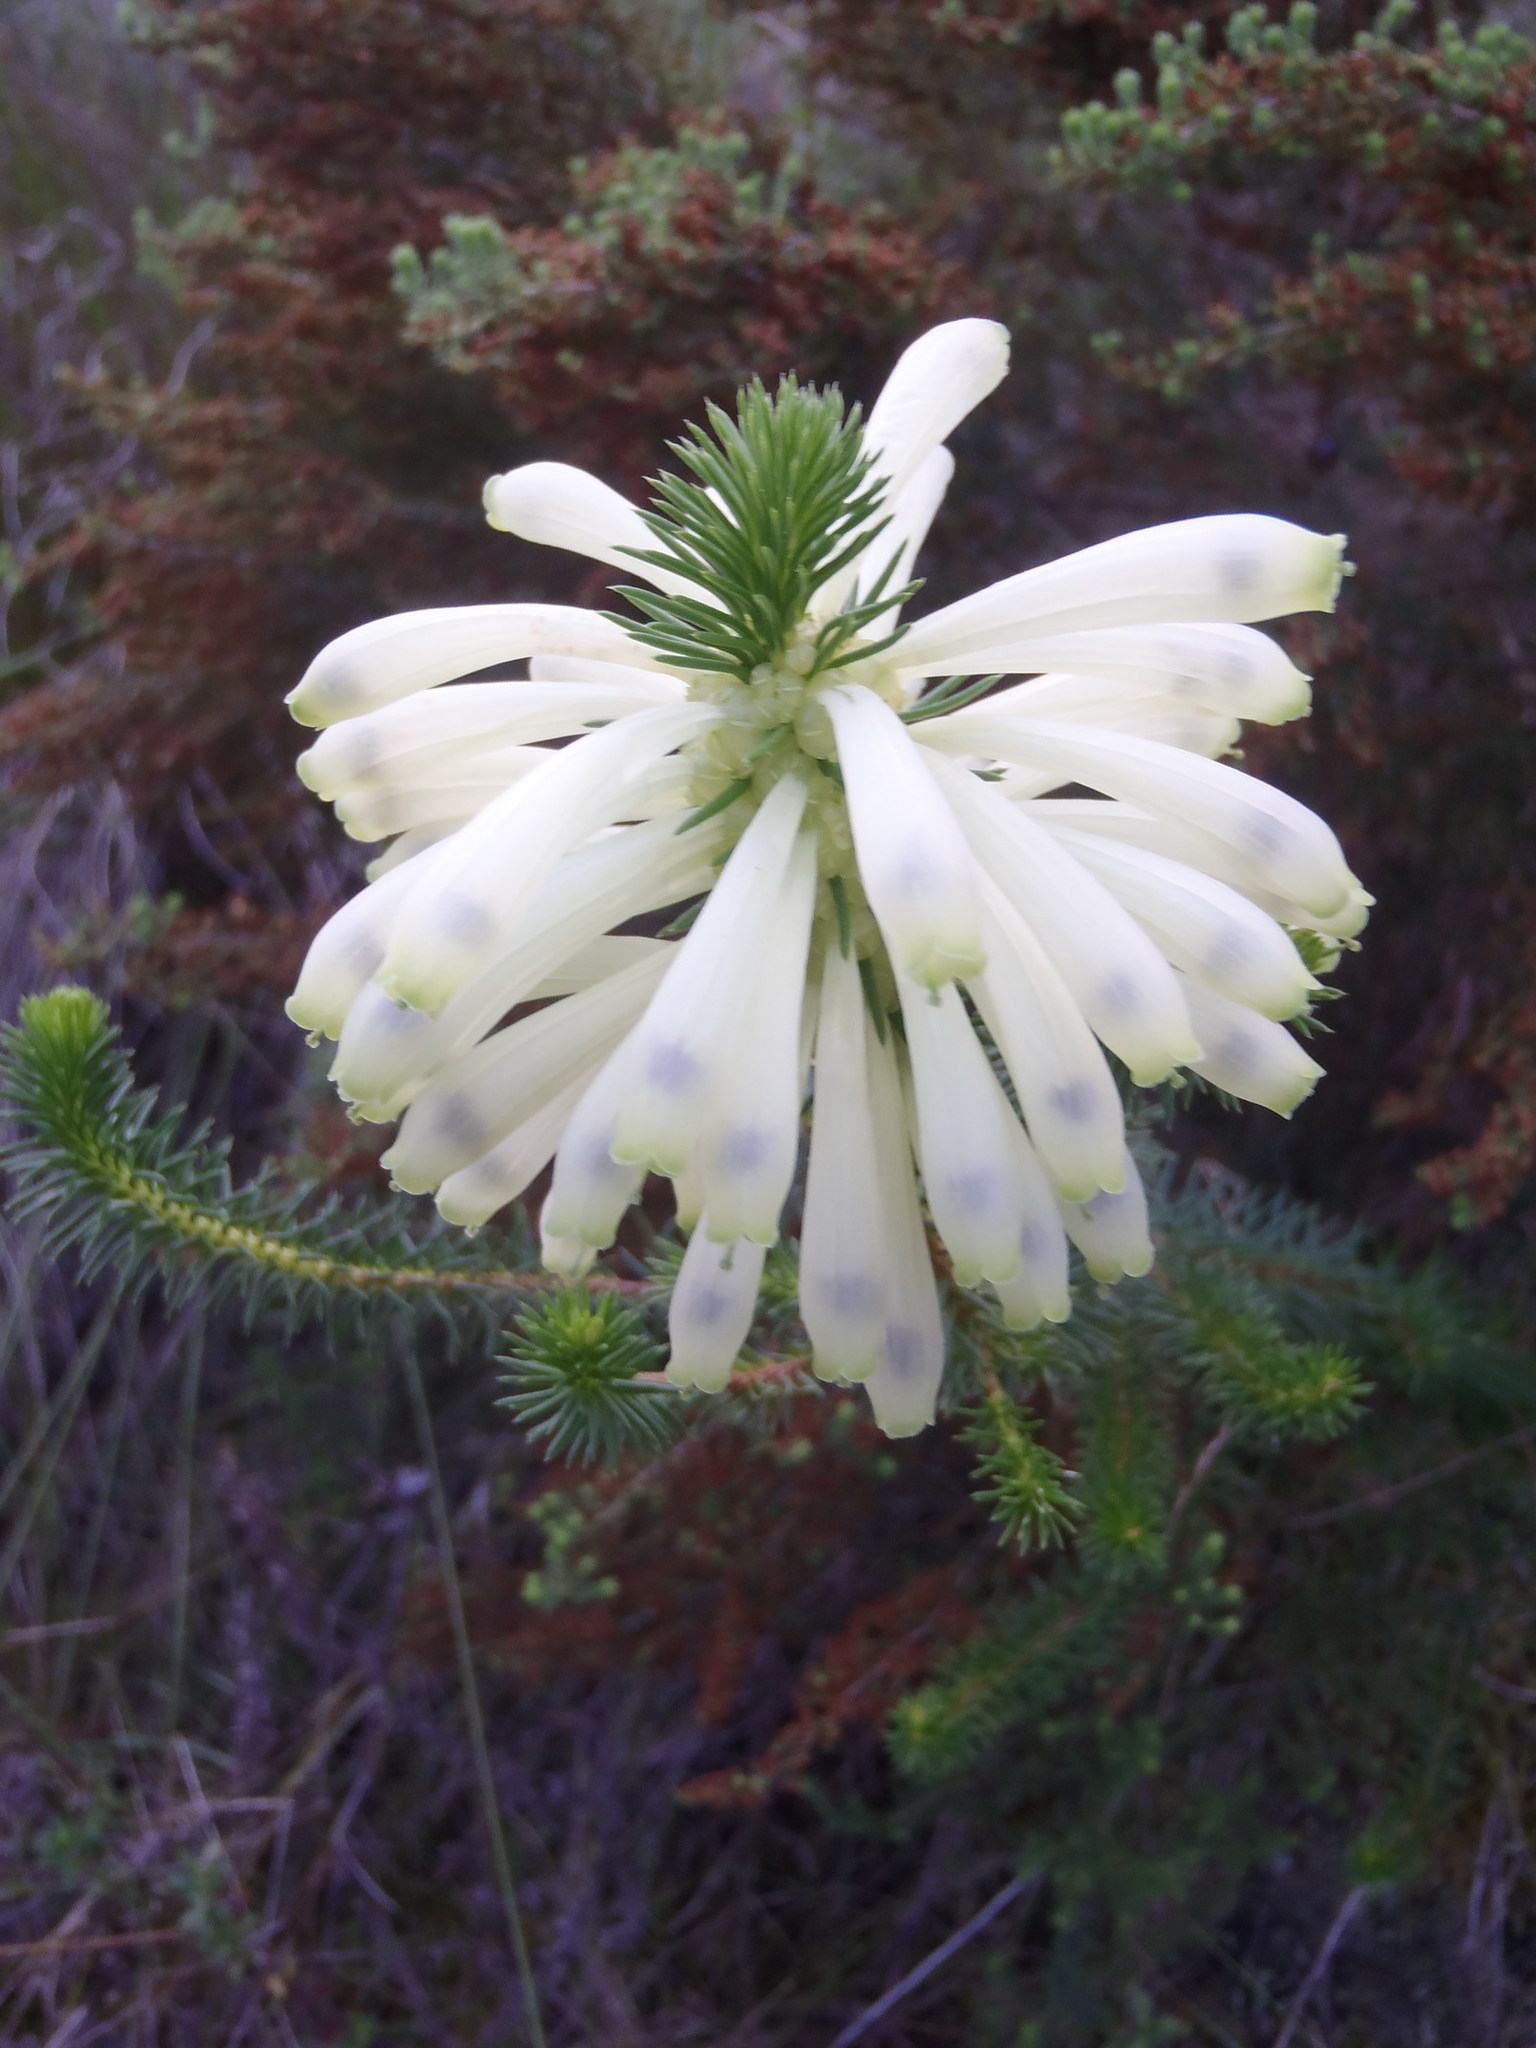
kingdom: Plantae
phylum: Tracheophyta
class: Magnoliopsida
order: Ericales
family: Ericaceae
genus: Erica
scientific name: Erica sessiliflora
